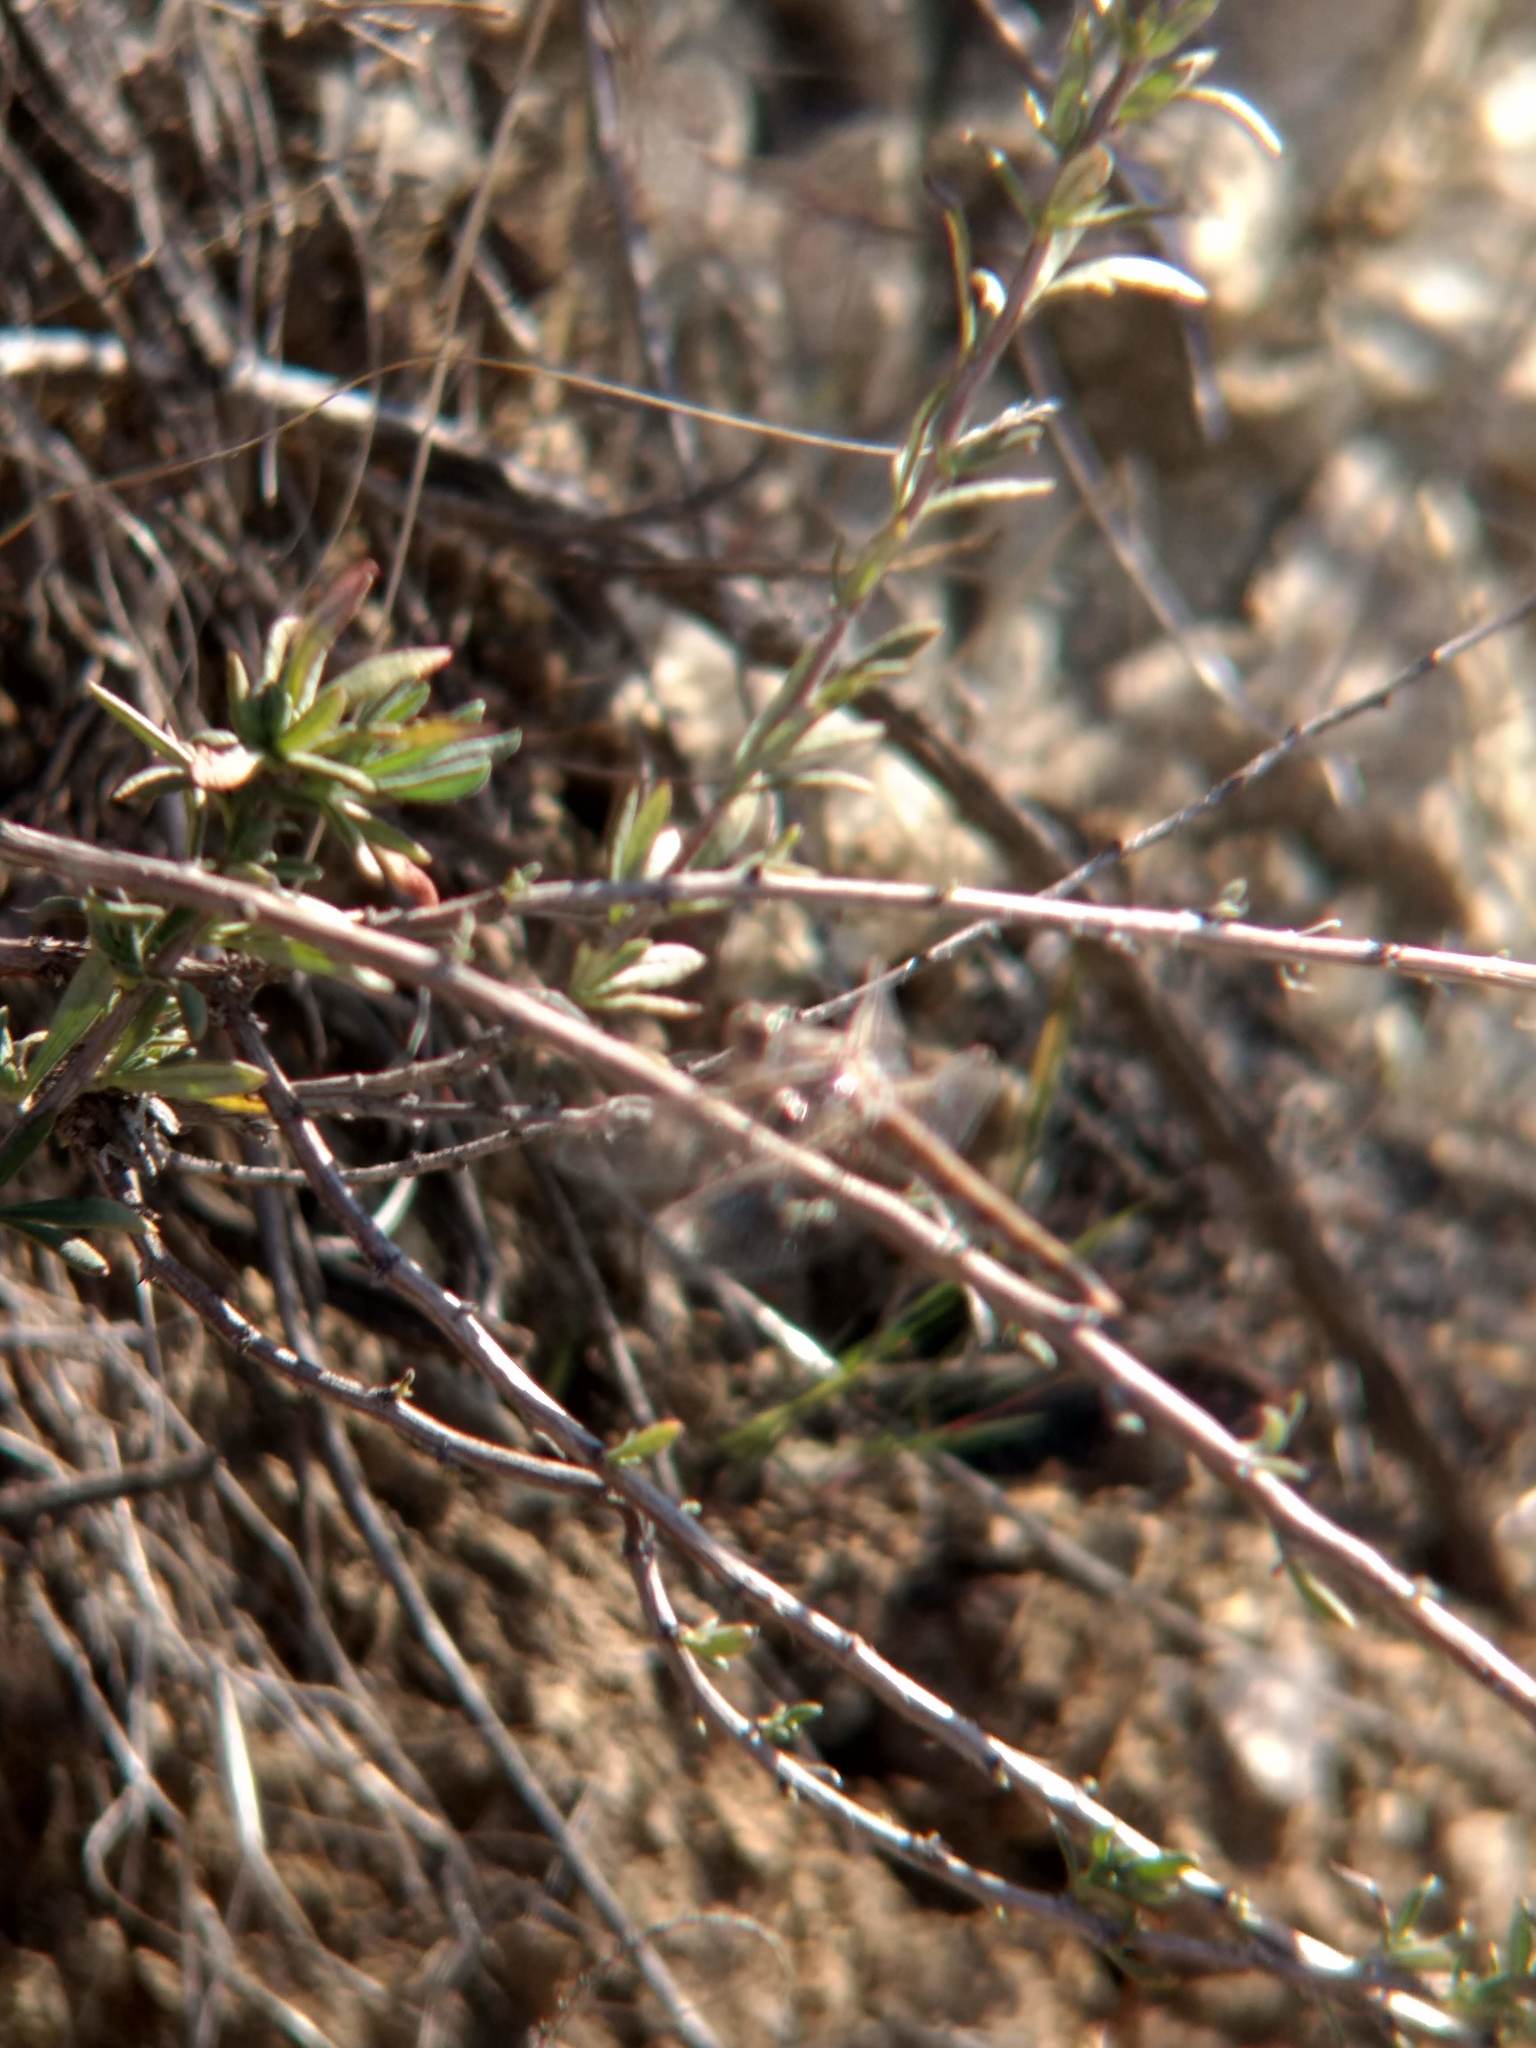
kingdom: Animalia
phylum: Arthropoda
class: Insecta
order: Odonata
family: Libellulidae
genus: Sympetrum
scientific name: Sympetrum corruptum
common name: Variegated meadowhawk
